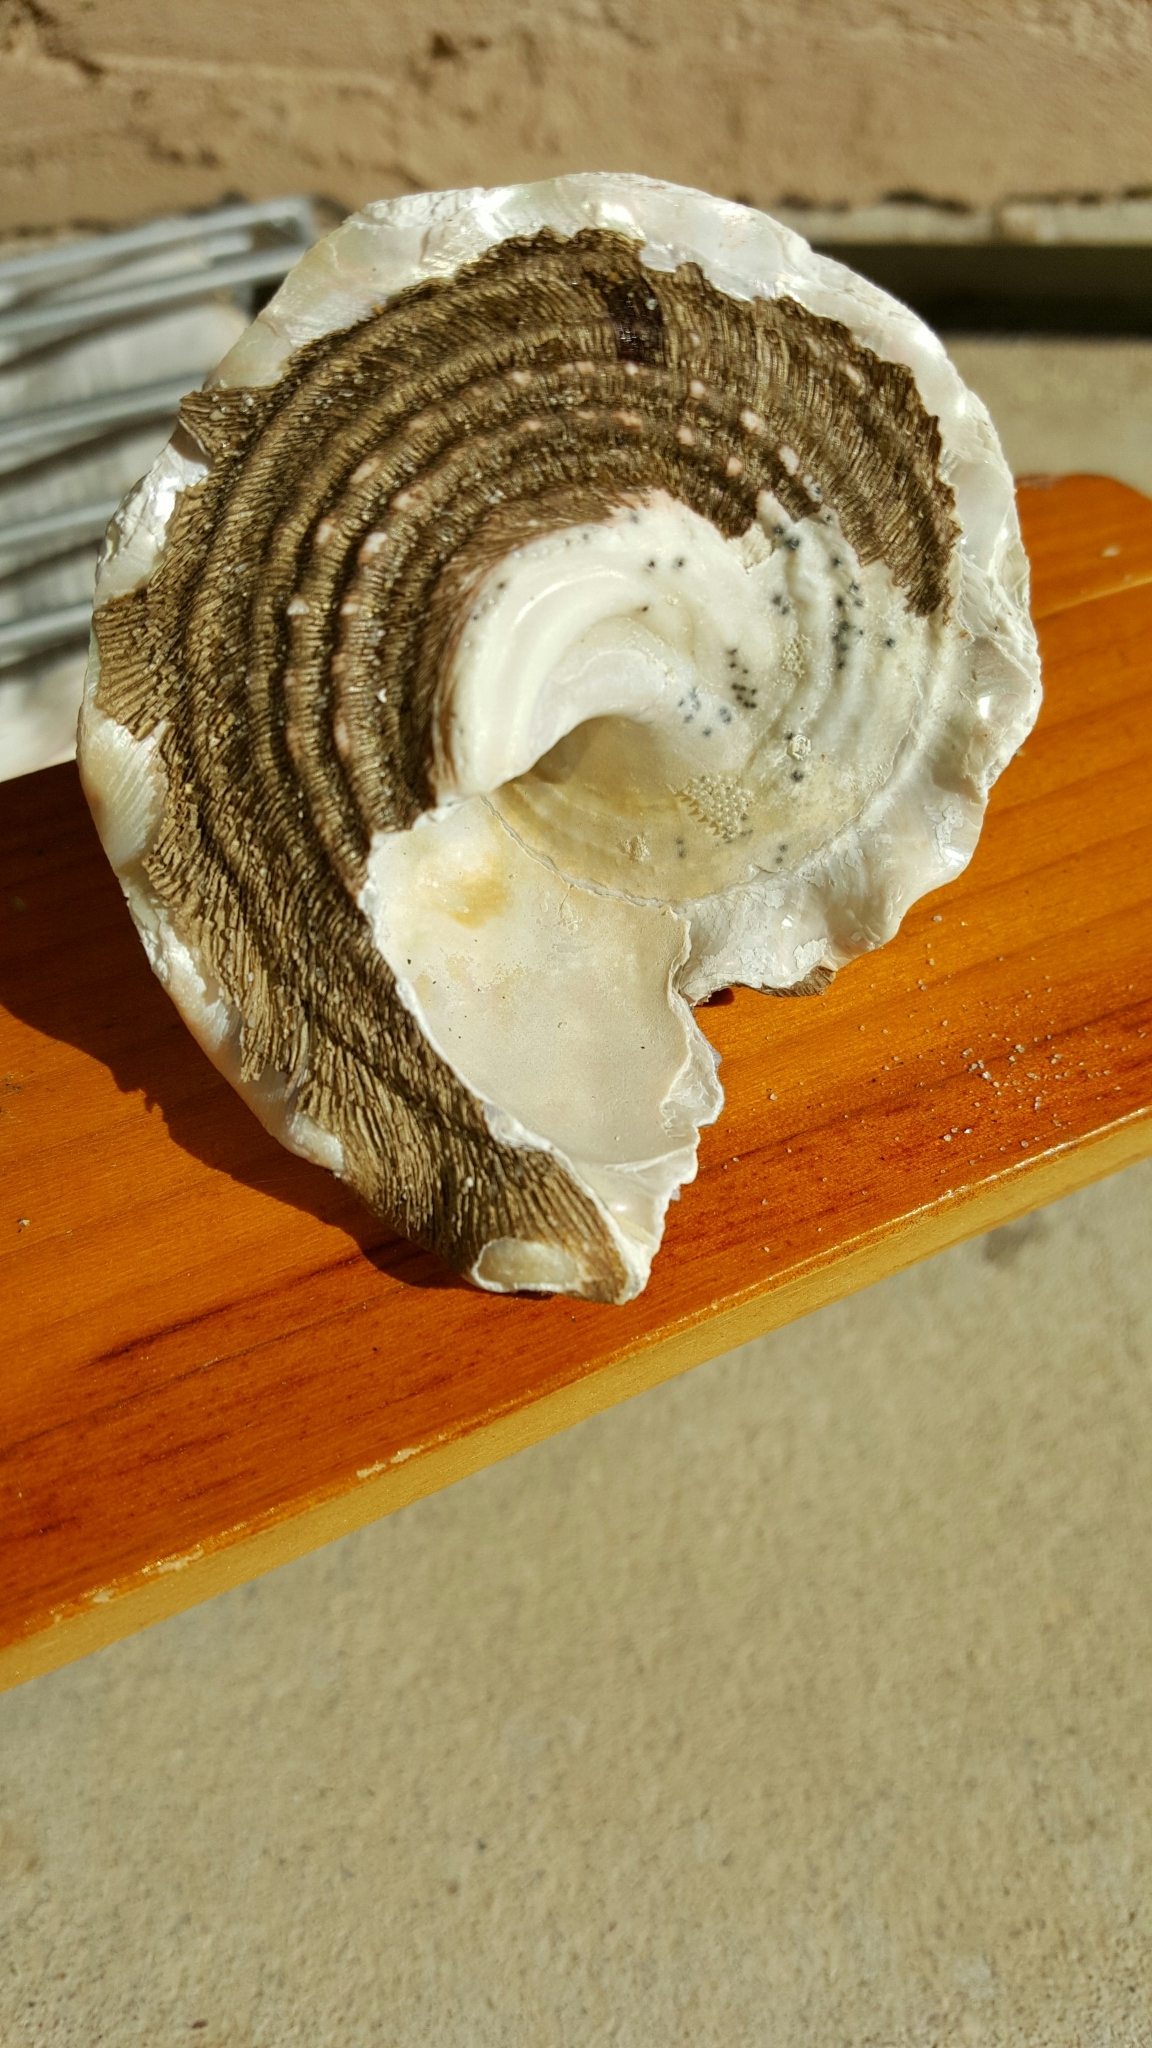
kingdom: Animalia
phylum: Mollusca
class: Gastropoda
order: Trochida
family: Turbinidae
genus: Megastraea
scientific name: Megastraea undosa
